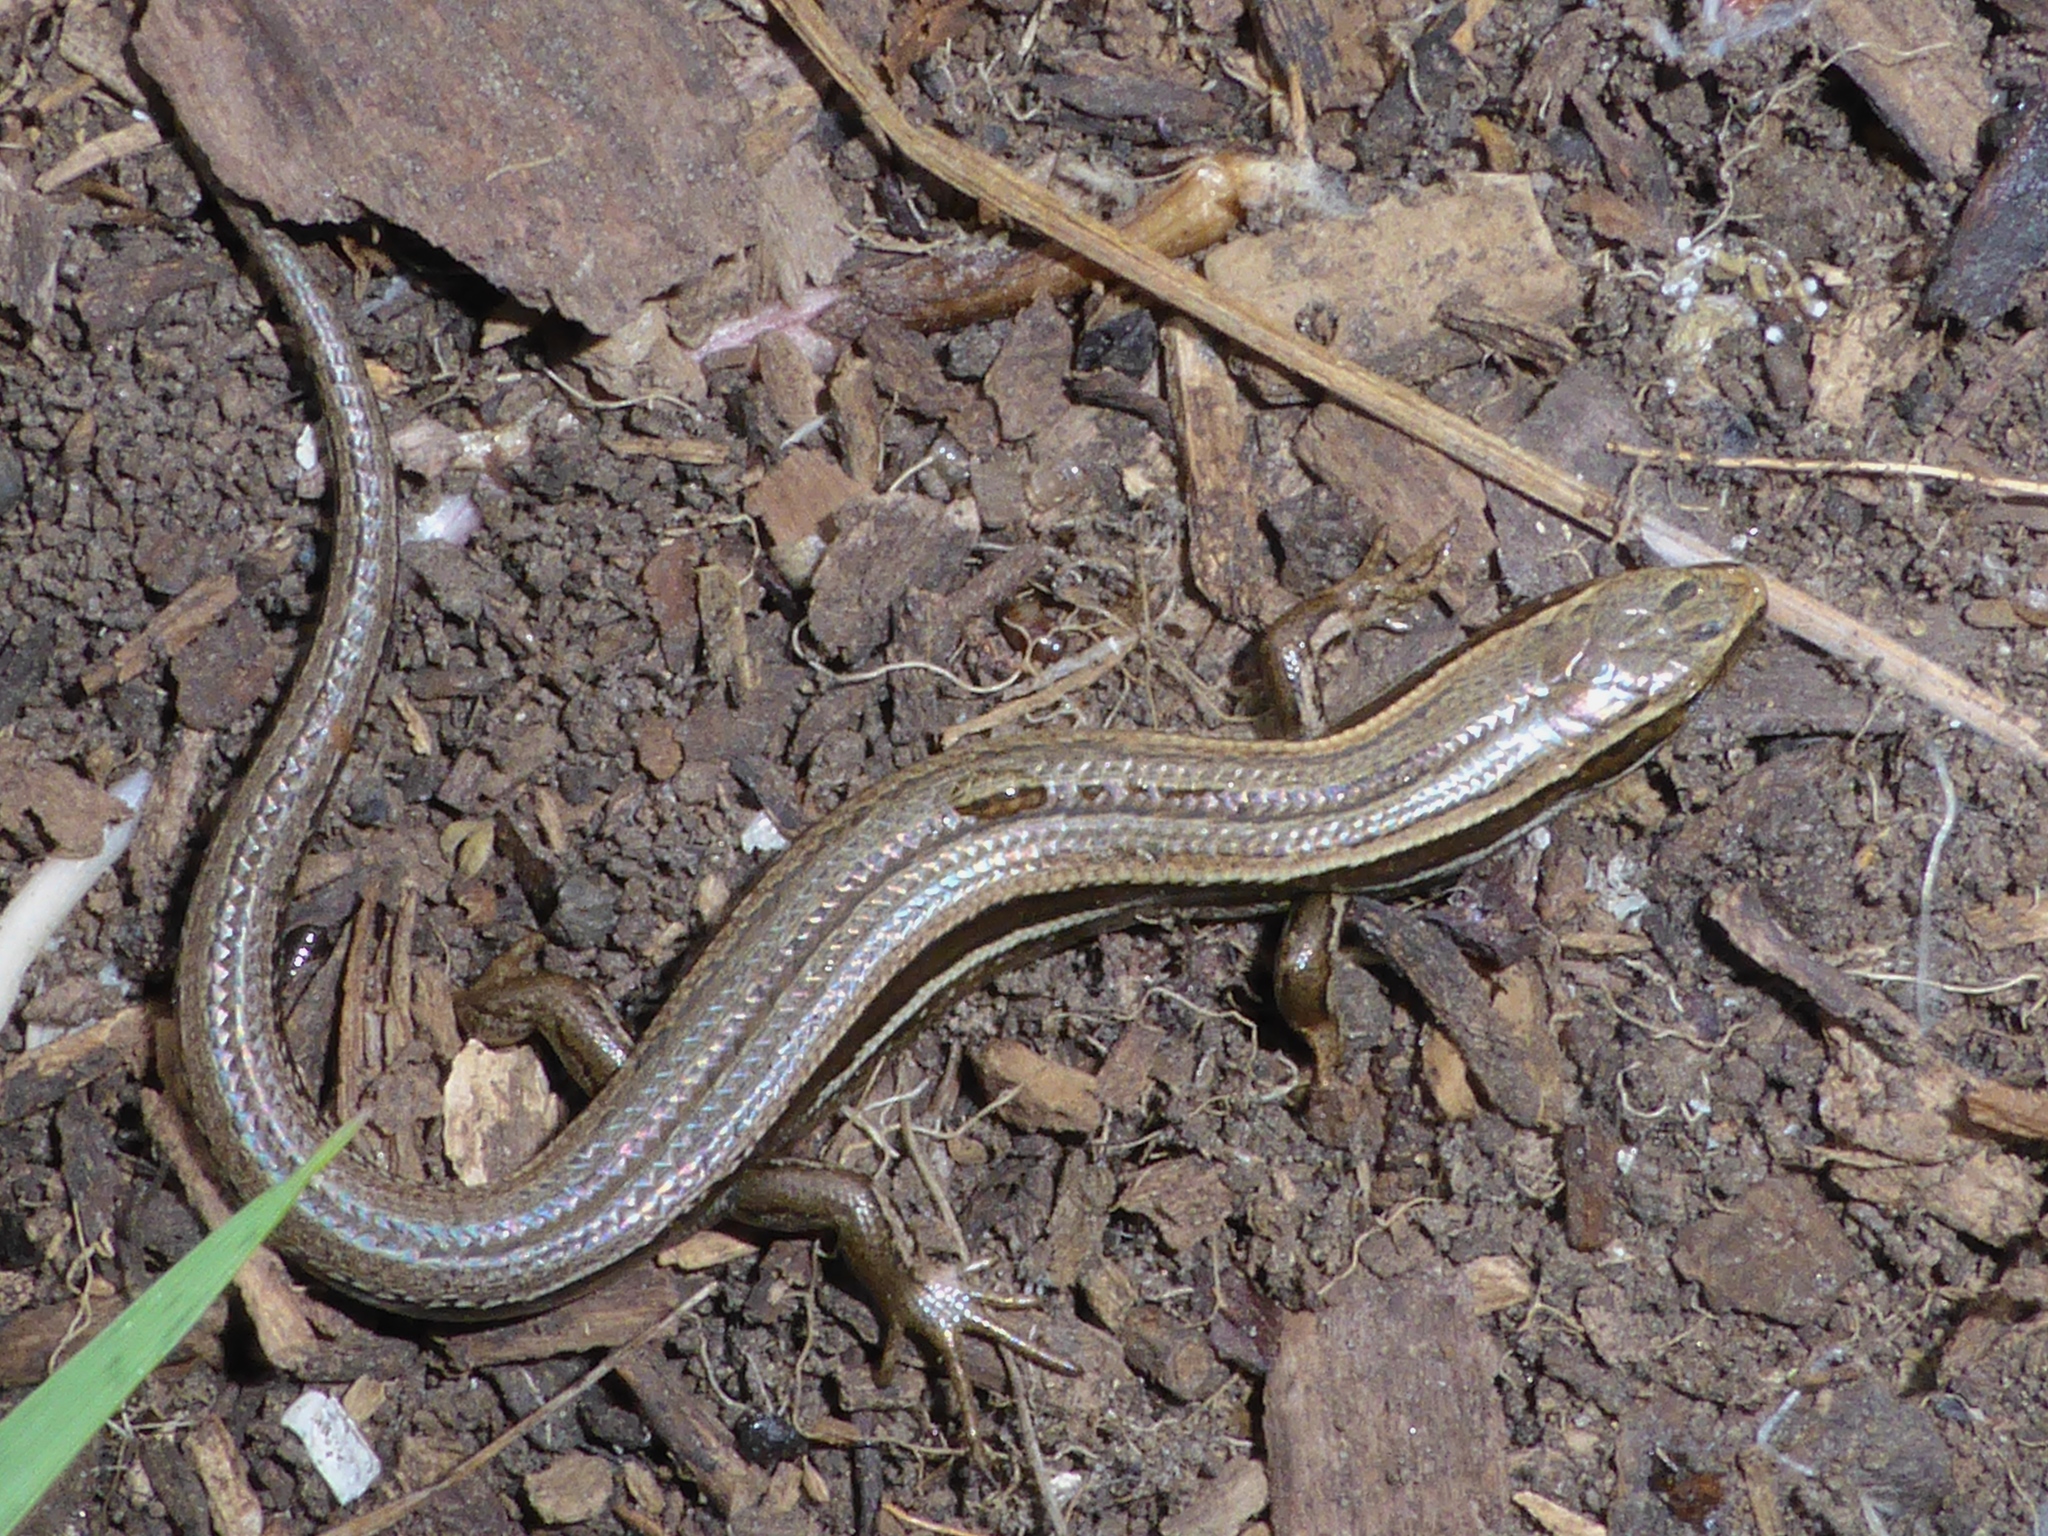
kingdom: Animalia
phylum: Chordata
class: Squamata
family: Scincidae
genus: Oligosoma
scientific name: Oligosoma maccanni
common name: Mccann’s skink
